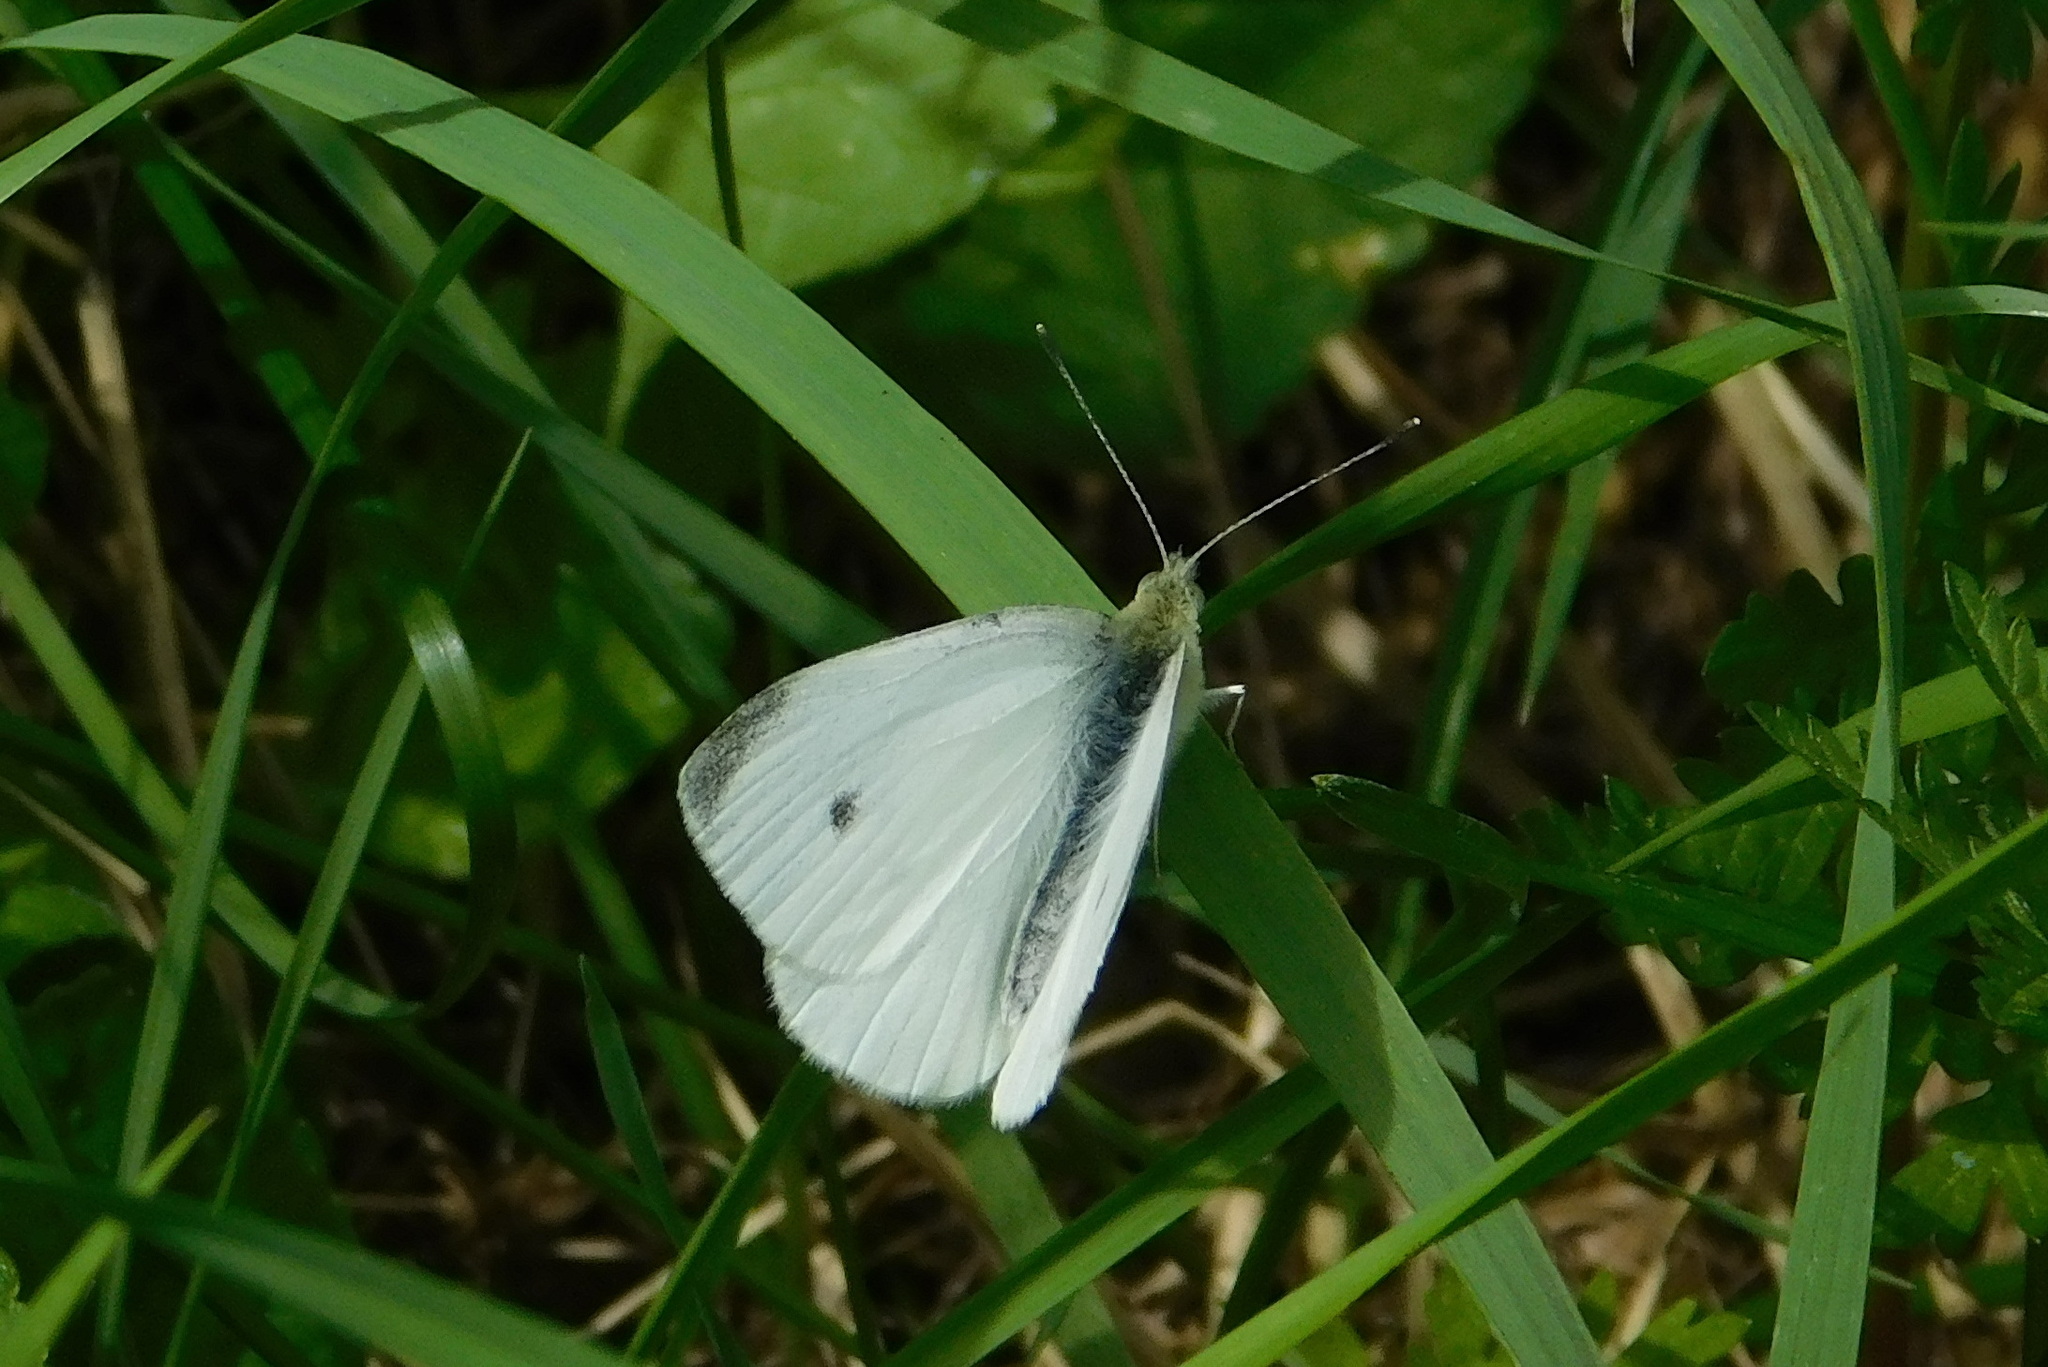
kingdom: Animalia
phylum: Arthropoda
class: Insecta
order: Lepidoptera
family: Pieridae
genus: Pieris
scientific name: Pieris rapae
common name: Small white
